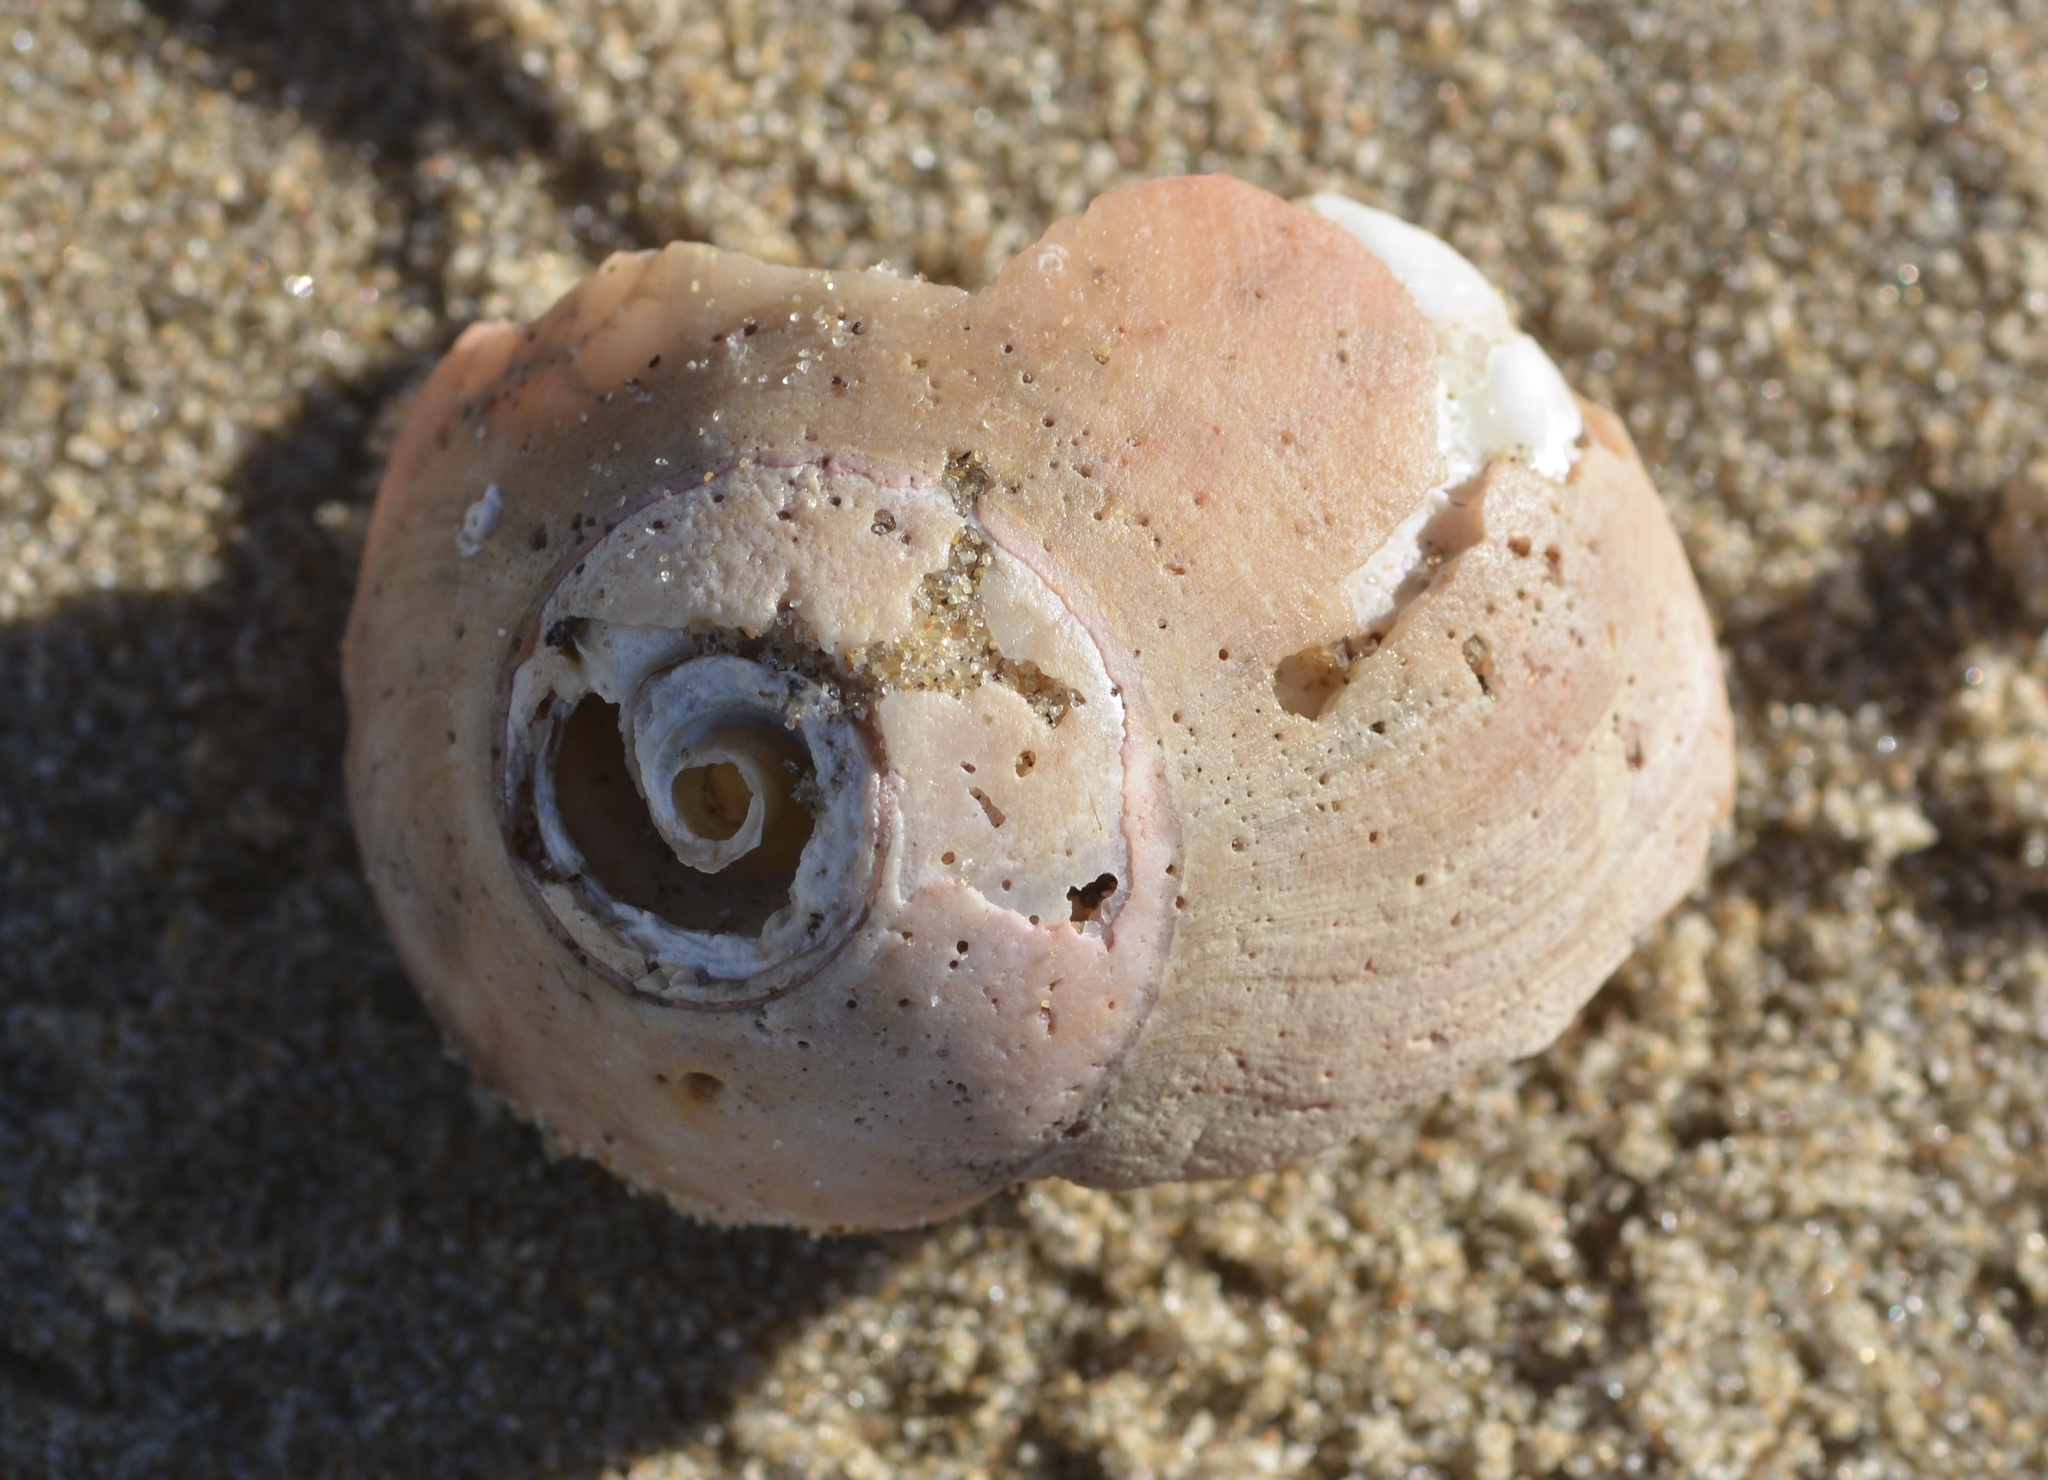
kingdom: Animalia
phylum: Mollusca
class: Gastropoda
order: Trochida
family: Tegulidae
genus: Norrisia
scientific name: Norrisia norrisii
